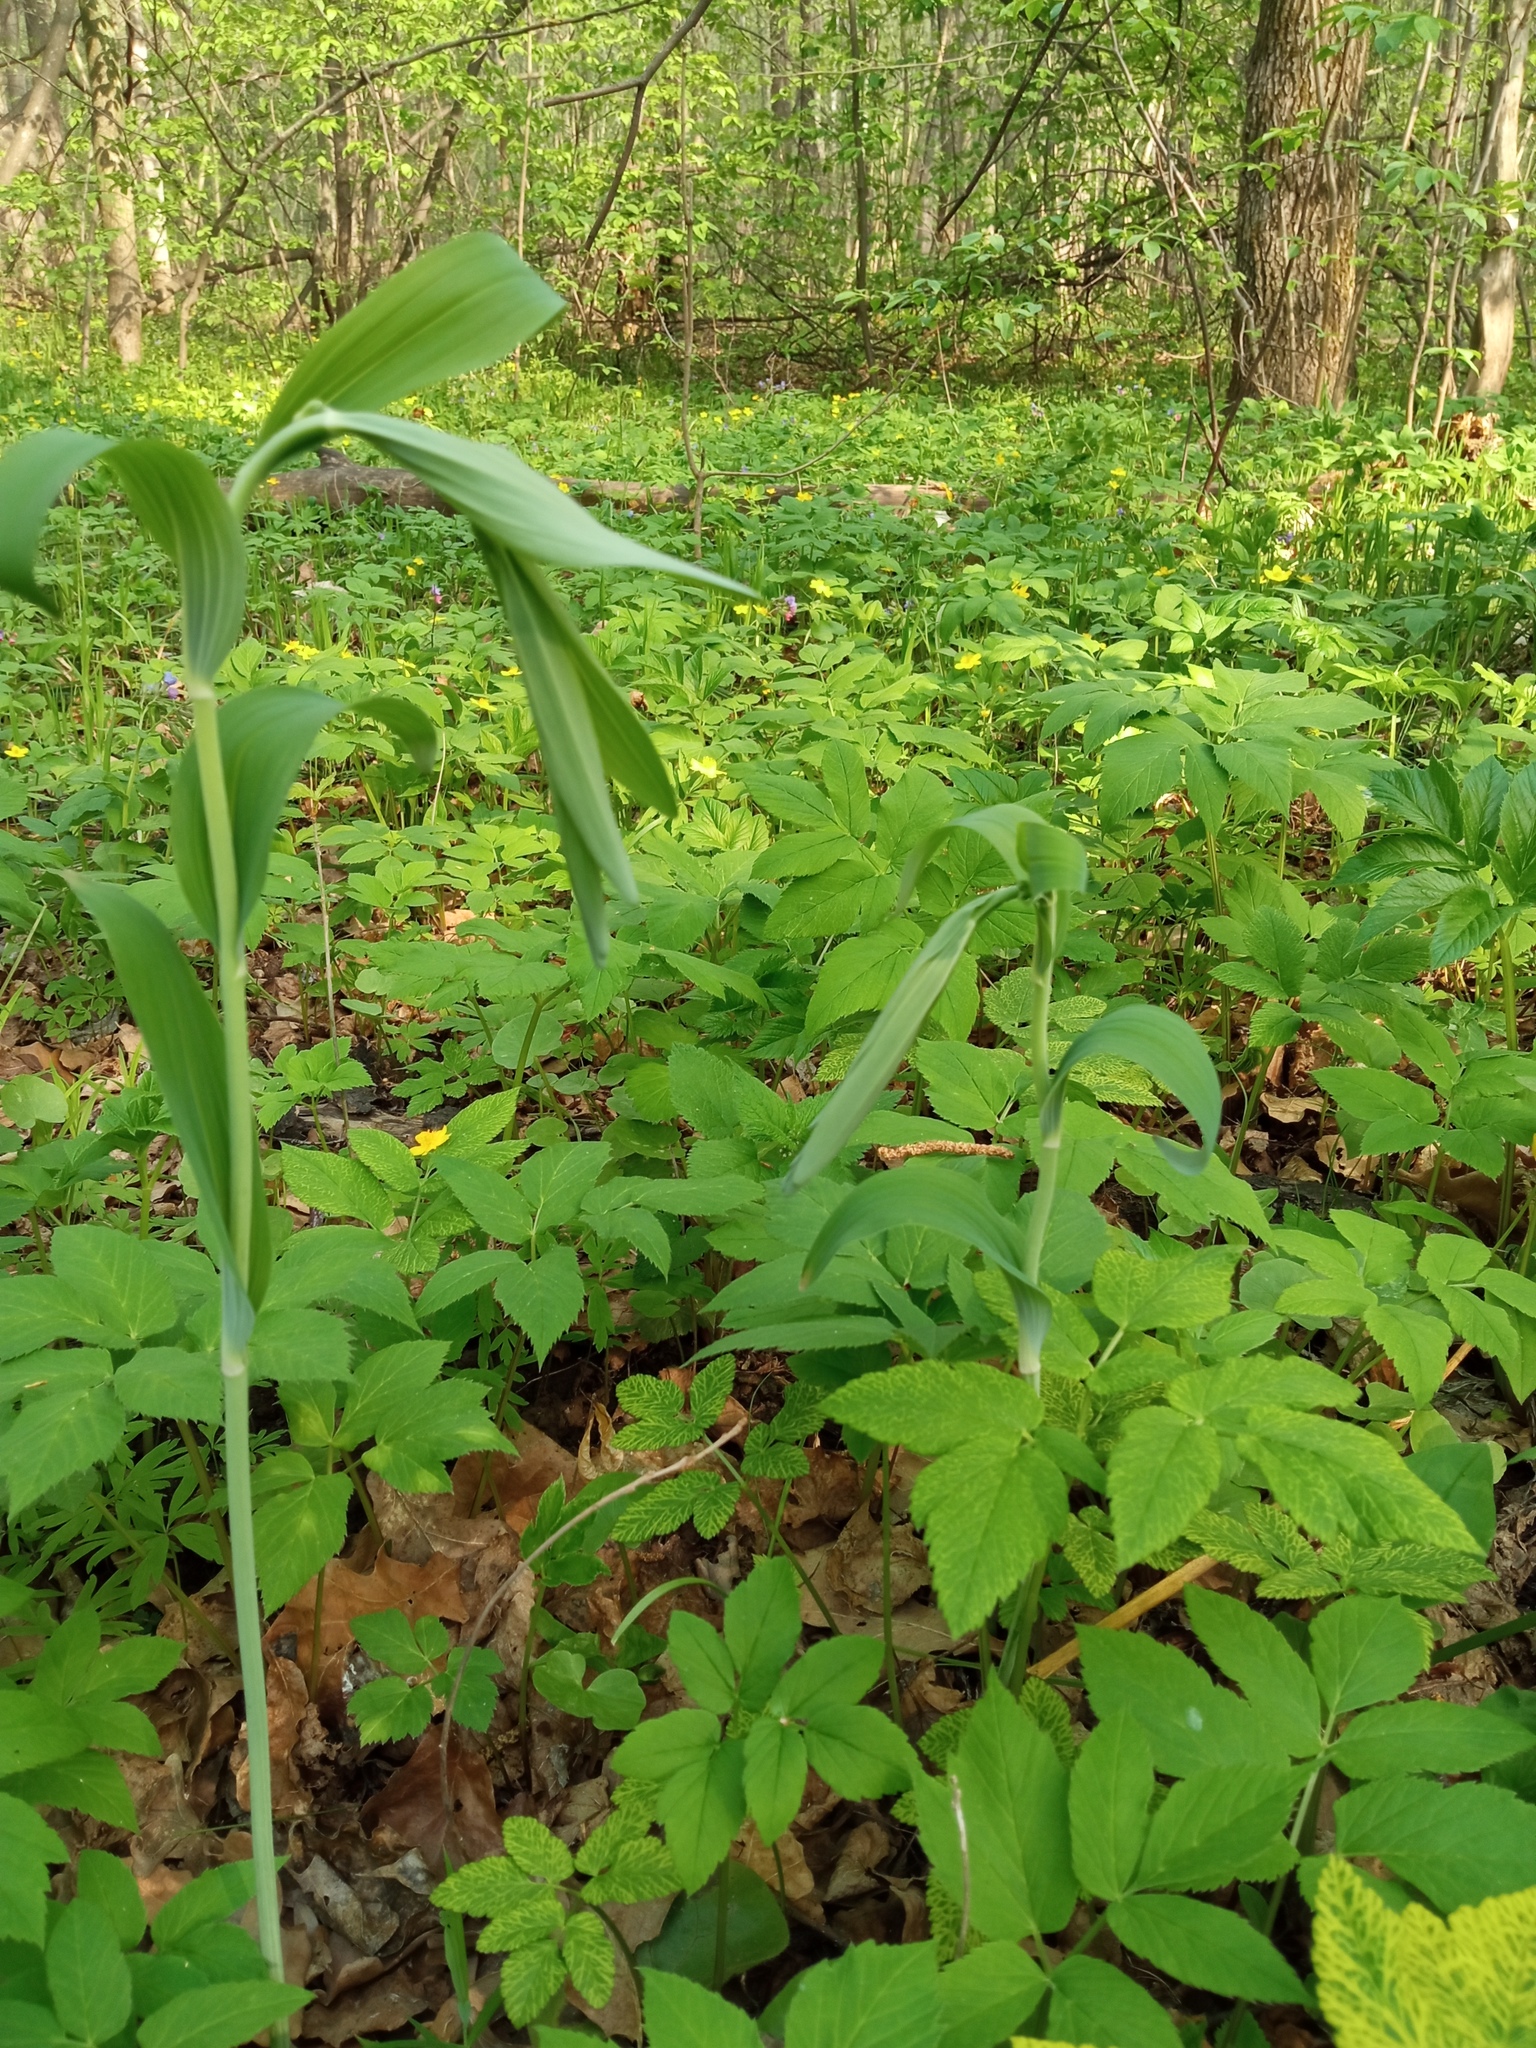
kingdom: Plantae
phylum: Tracheophyta
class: Liliopsida
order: Asparagales
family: Asparagaceae
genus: Polygonatum
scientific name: Polygonatum multiflorum
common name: Solomon's-seal
